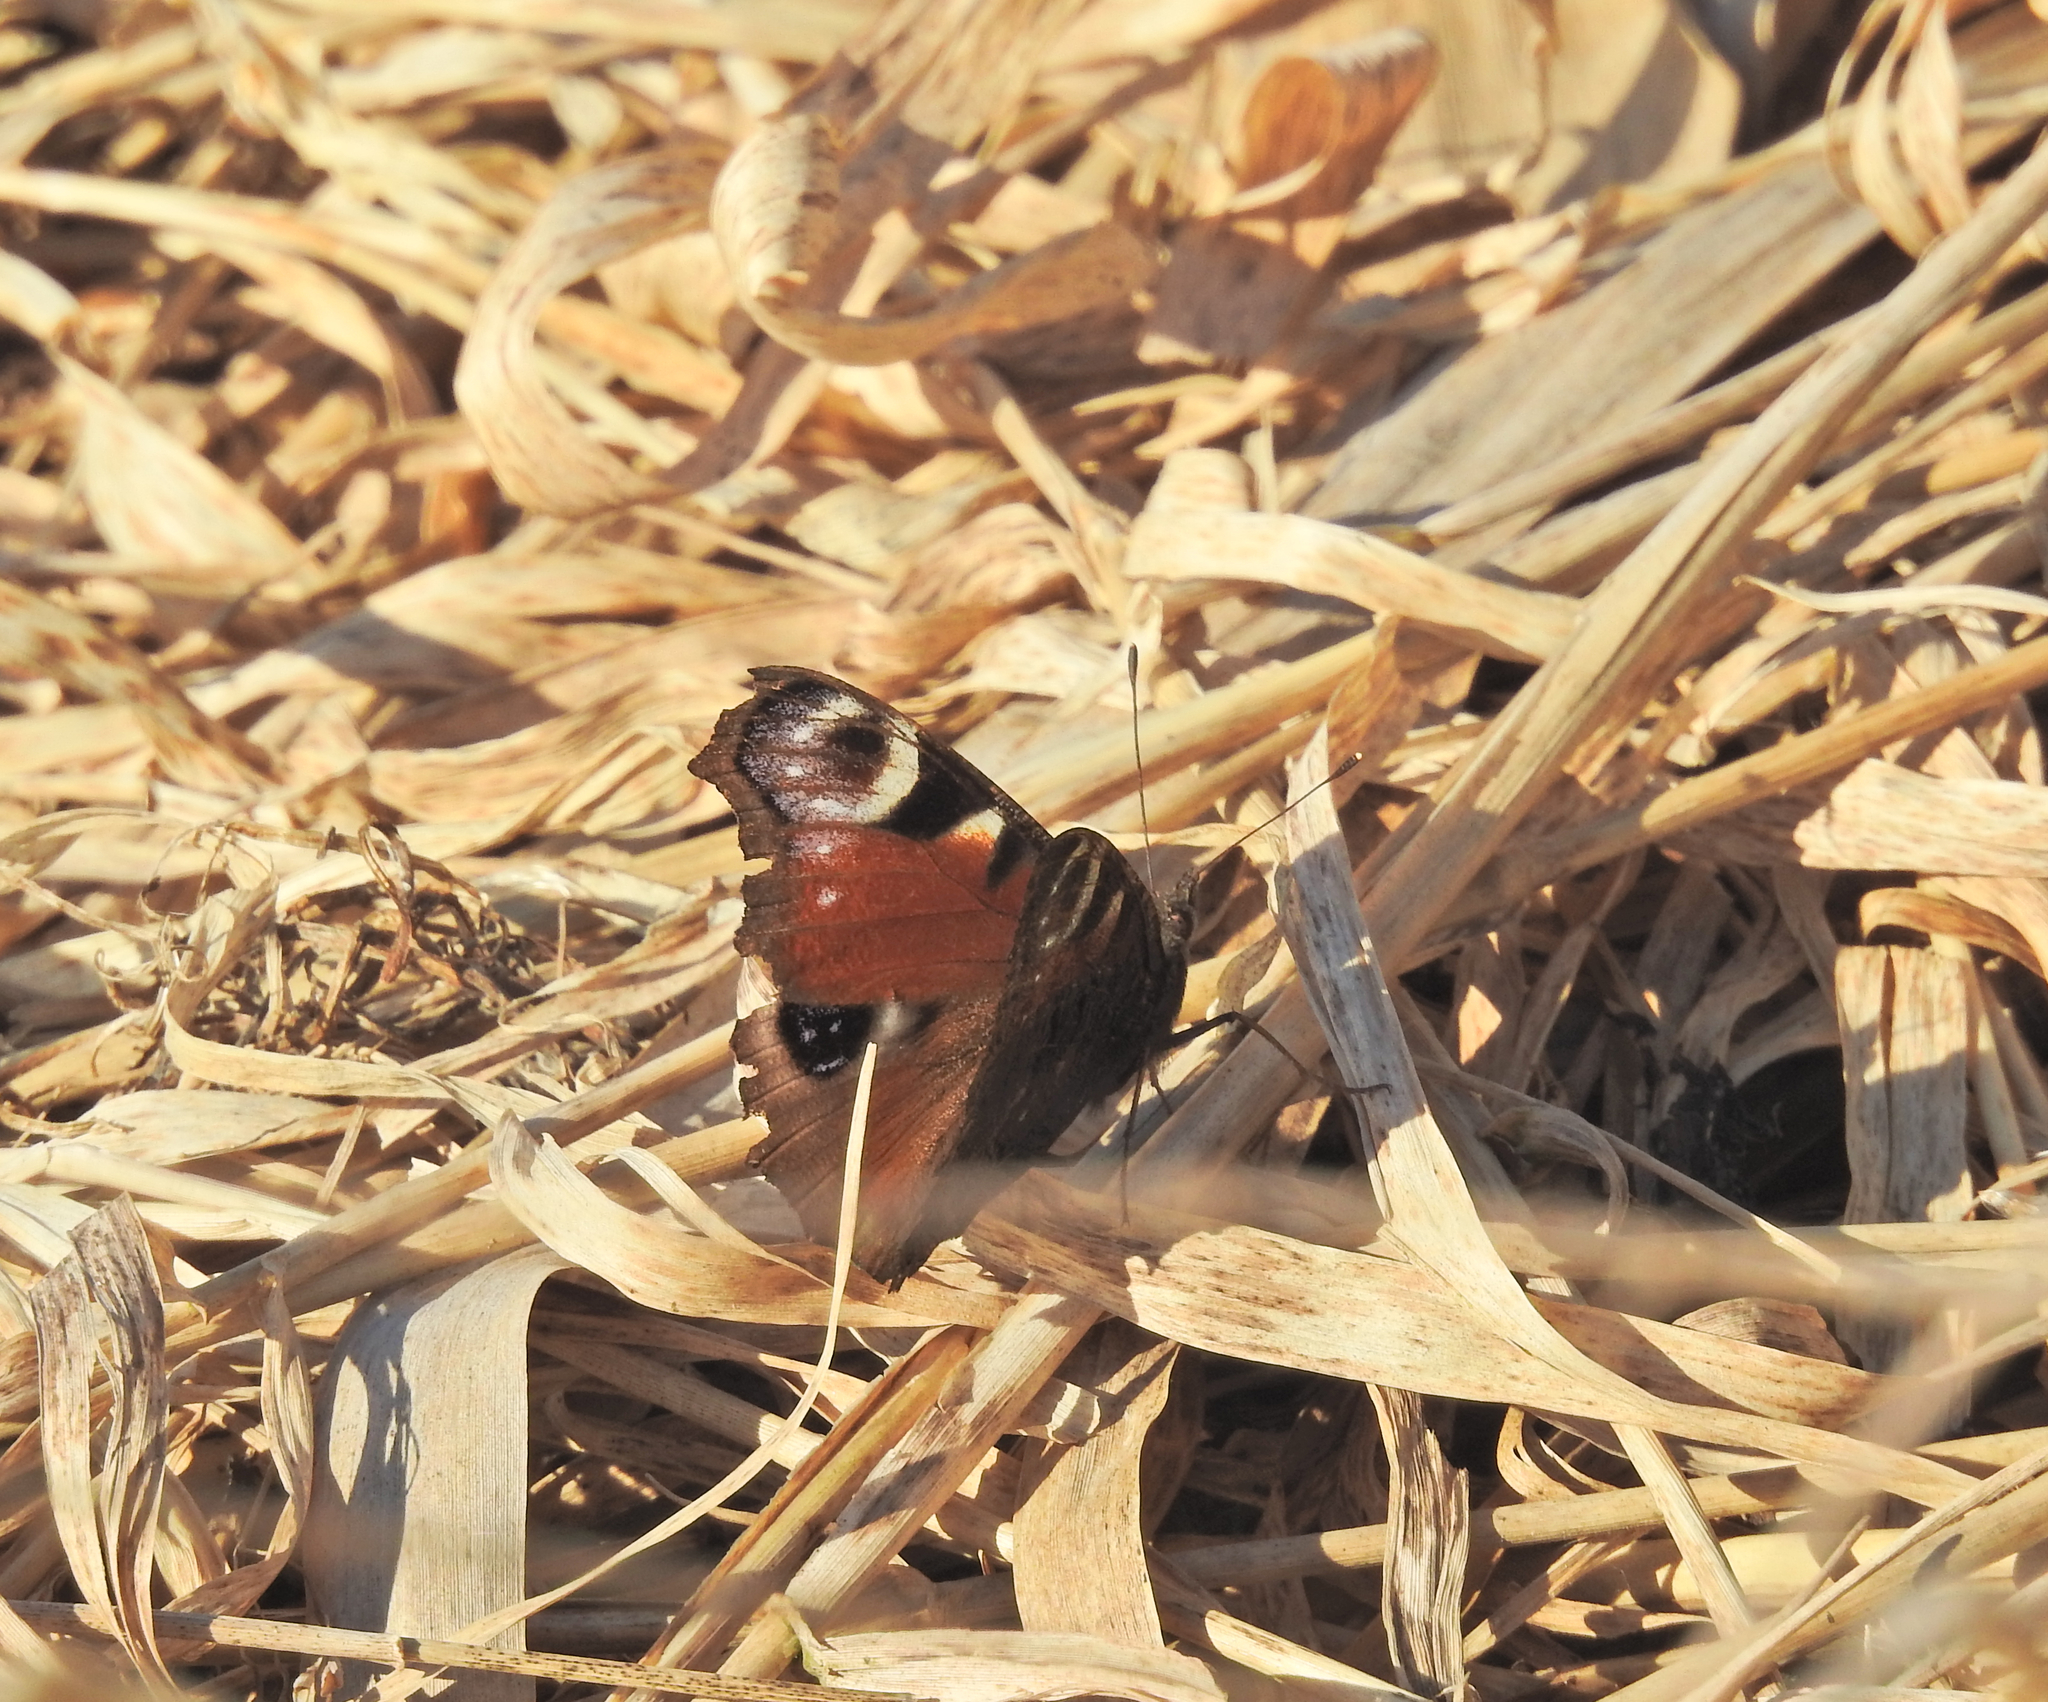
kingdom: Animalia
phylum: Arthropoda
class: Insecta
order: Lepidoptera
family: Nymphalidae
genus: Aglais
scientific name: Aglais io
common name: Peacock
